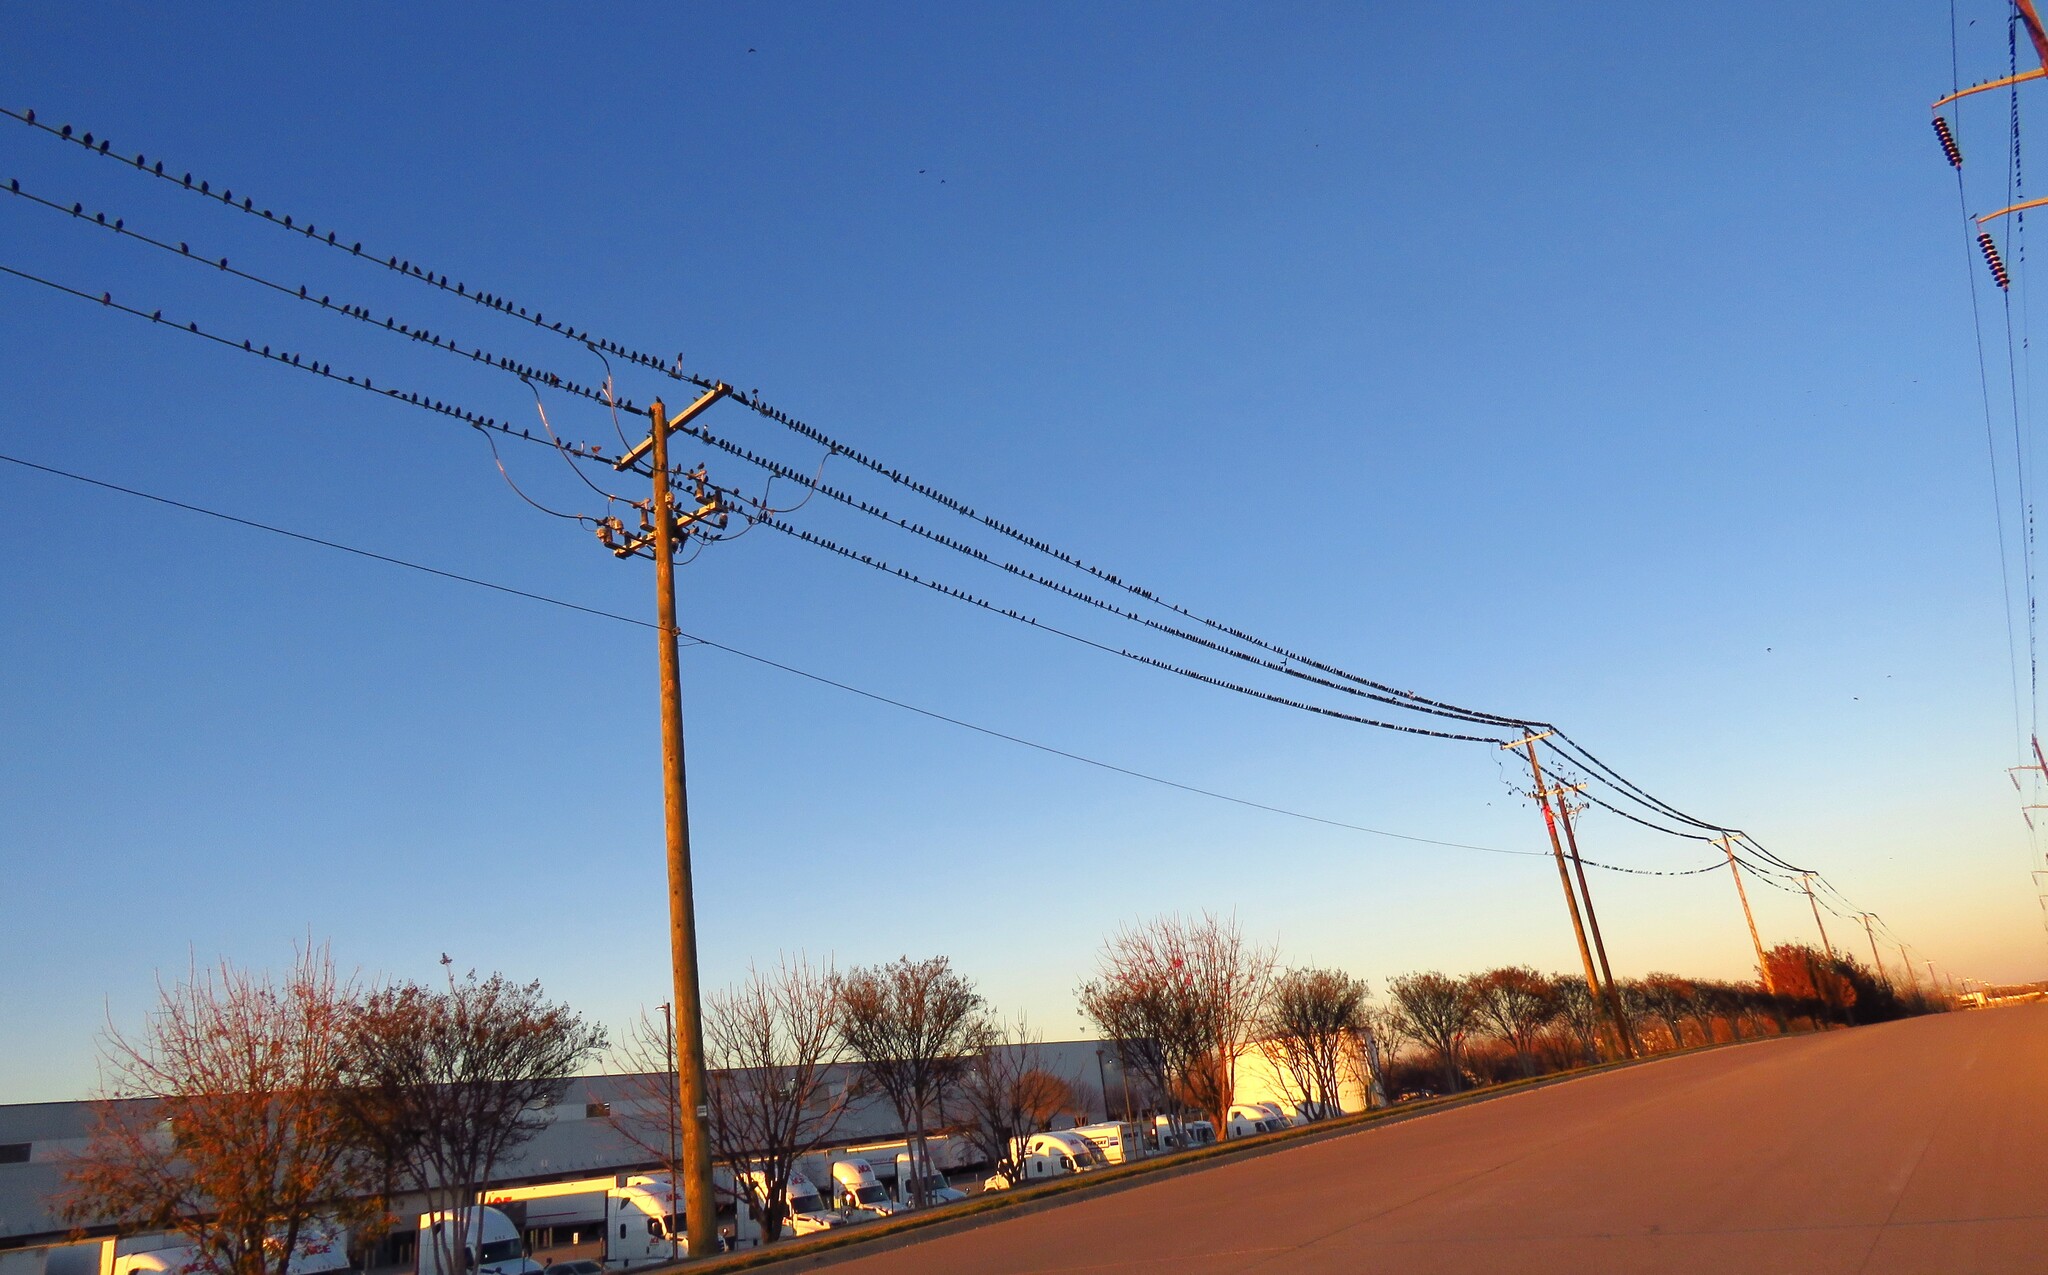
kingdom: Animalia
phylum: Chordata
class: Aves
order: Passeriformes
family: Sturnidae
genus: Sturnus
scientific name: Sturnus vulgaris
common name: Common starling
